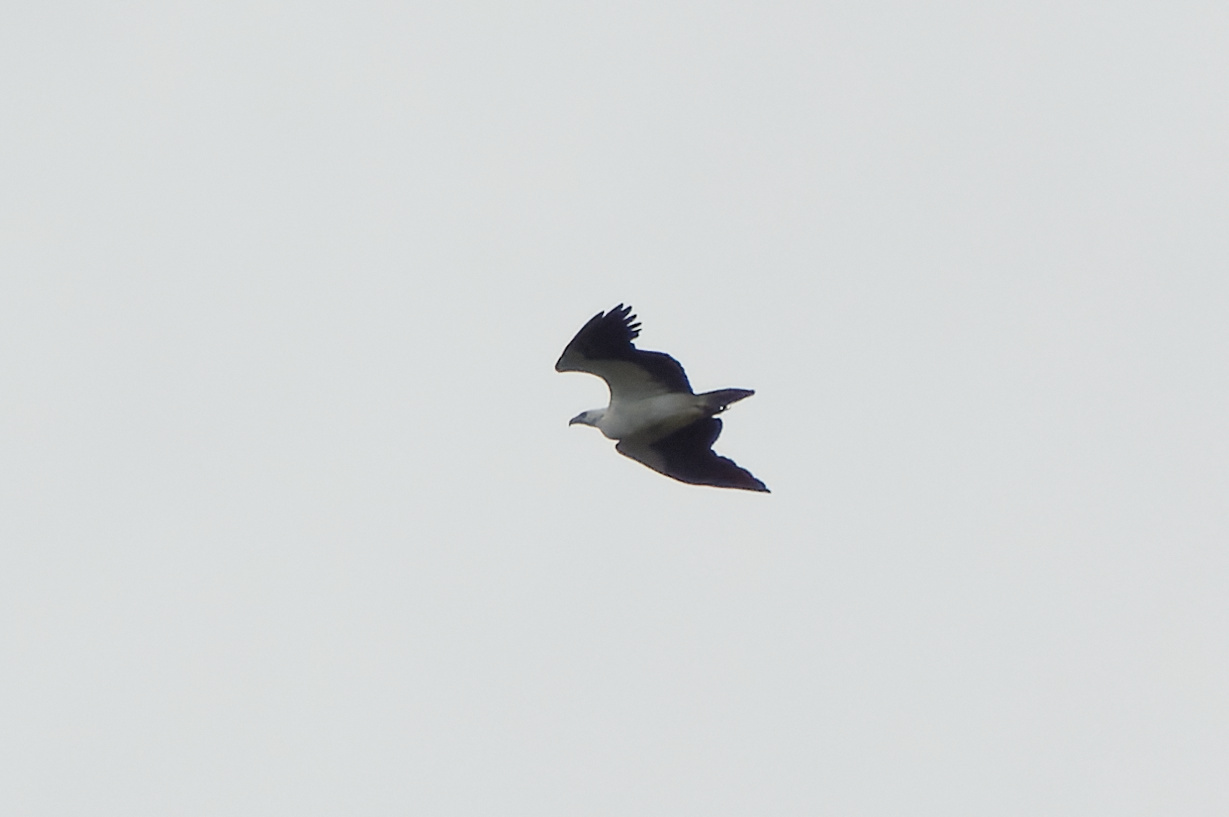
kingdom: Animalia
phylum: Chordata
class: Aves
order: Accipitriformes
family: Accipitridae
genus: Haliaeetus
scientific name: Haliaeetus leucogaster
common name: White-bellied sea eagle
